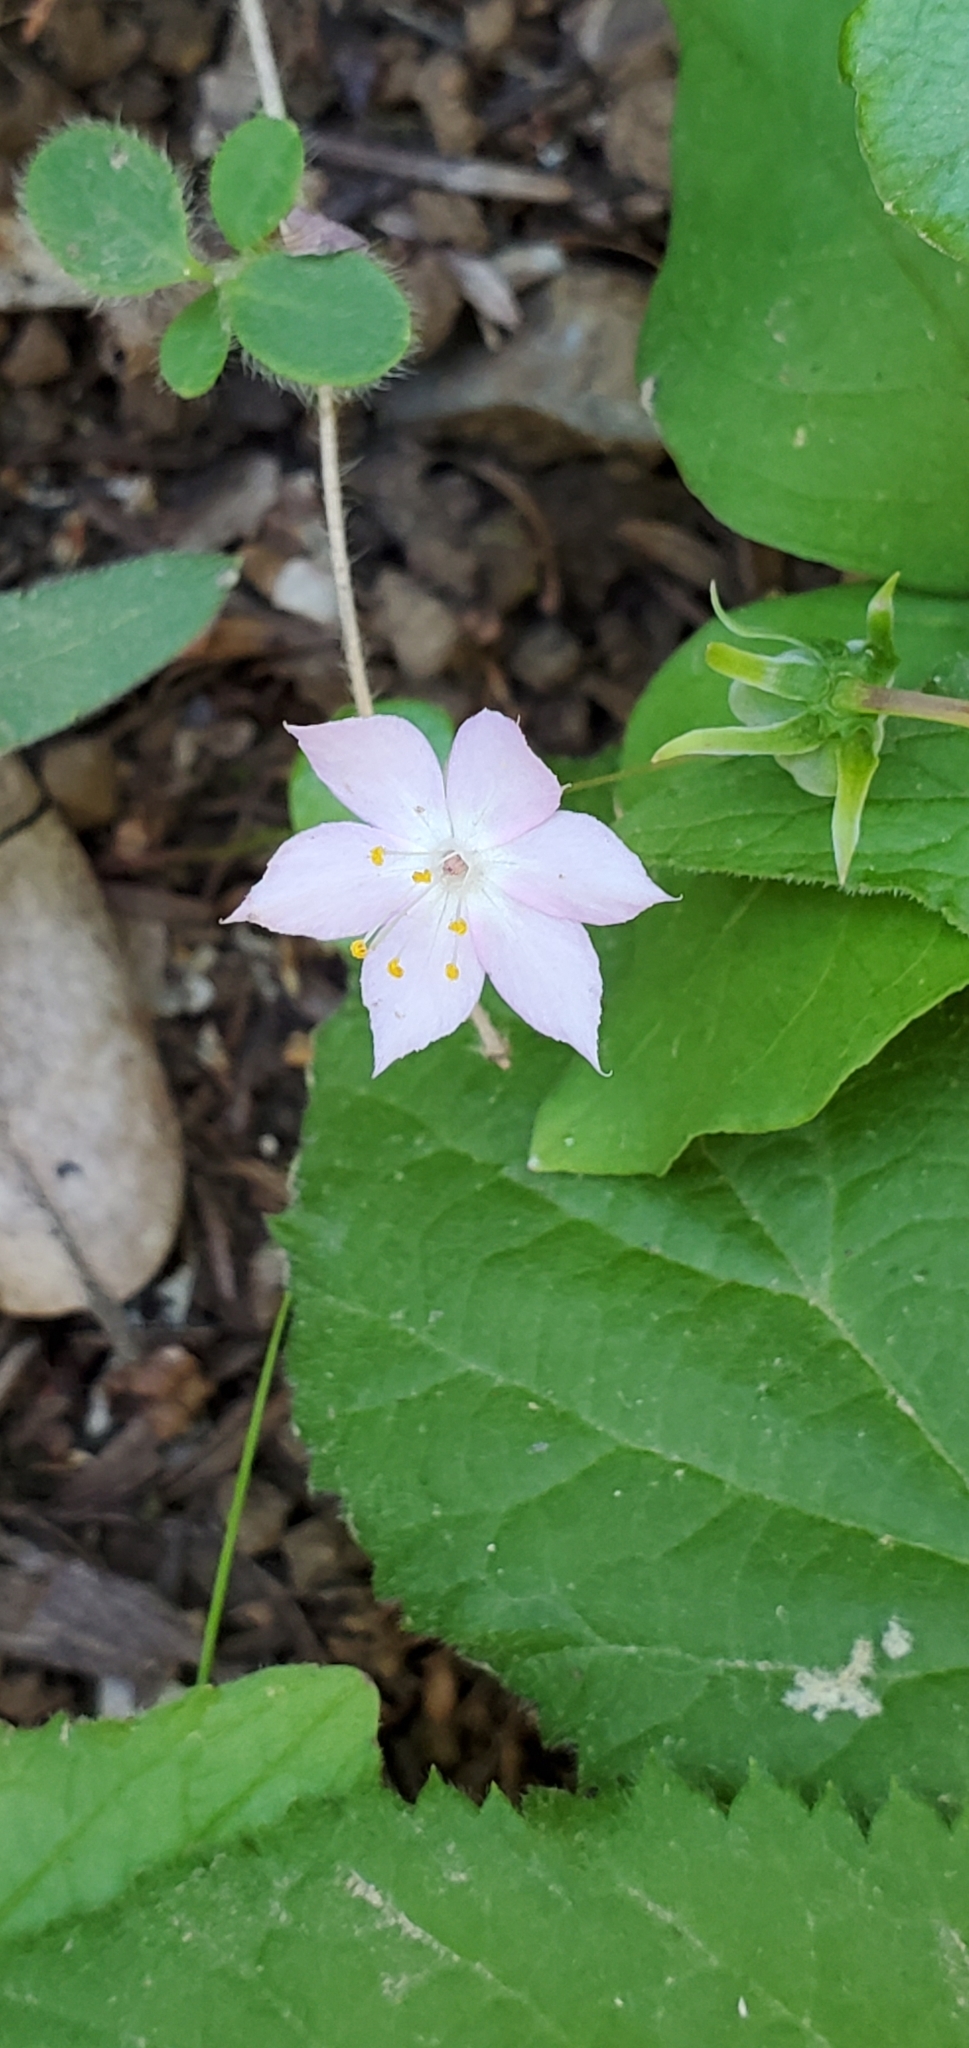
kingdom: Plantae
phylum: Tracheophyta
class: Magnoliopsida
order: Ericales
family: Primulaceae
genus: Lysimachia
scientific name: Lysimachia latifolia
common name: Pacific starflower
